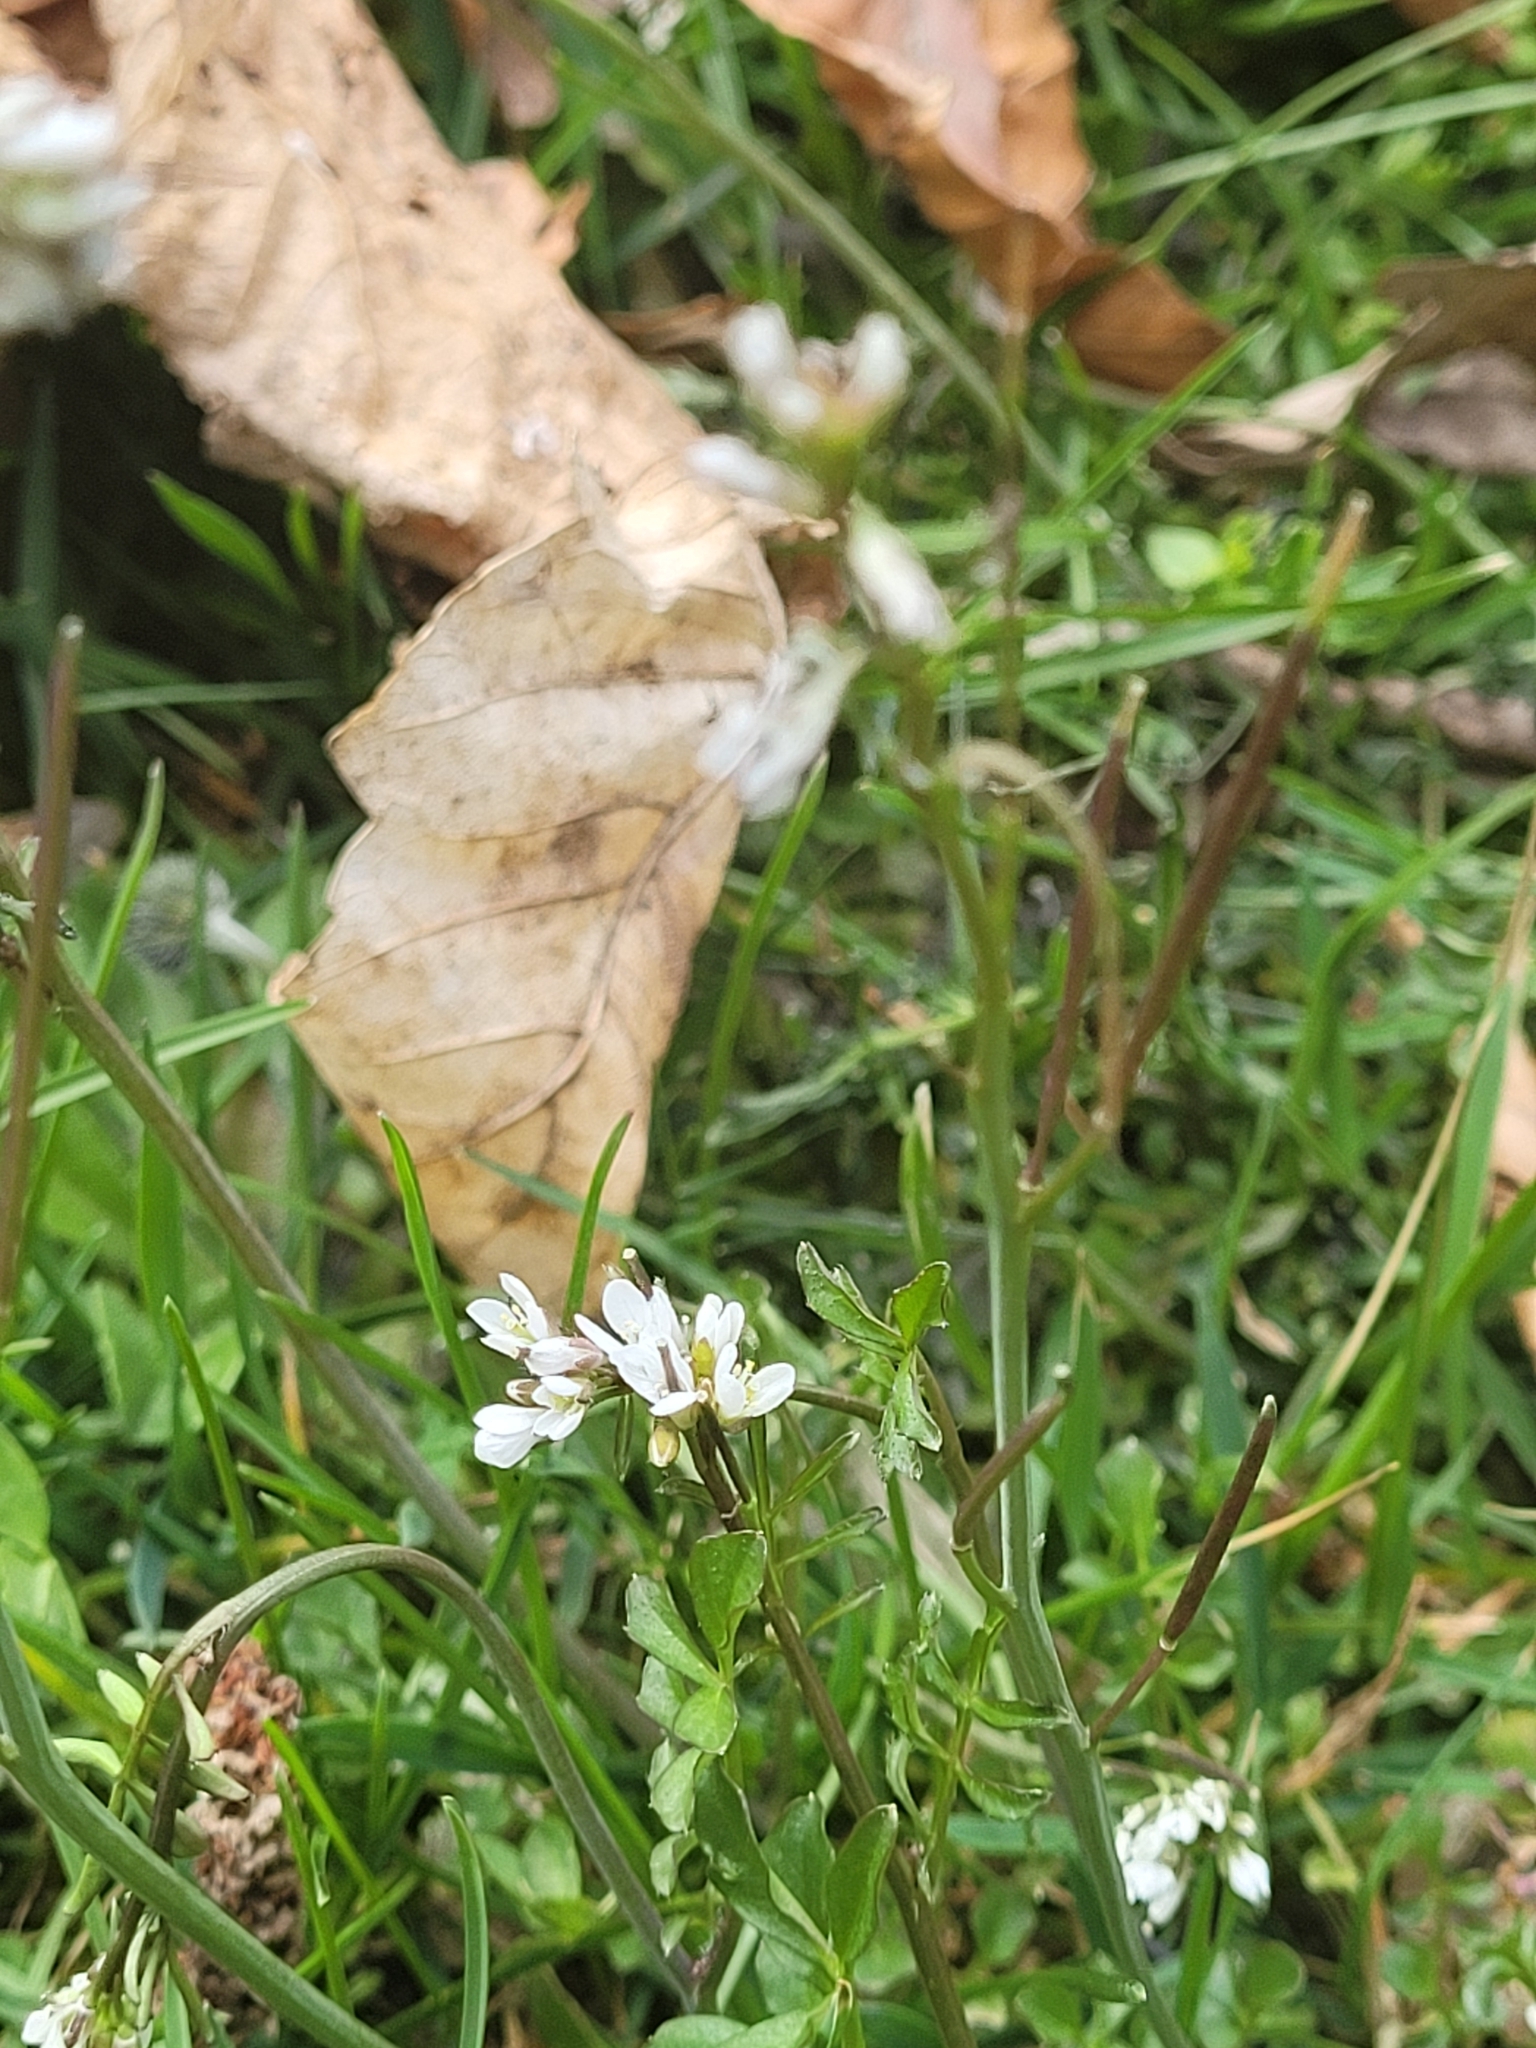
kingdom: Plantae
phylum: Tracheophyta
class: Magnoliopsida
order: Brassicales
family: Brassicaceae
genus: Cardamine
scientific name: Cardamine hirsuta
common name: Hairy bittercress
